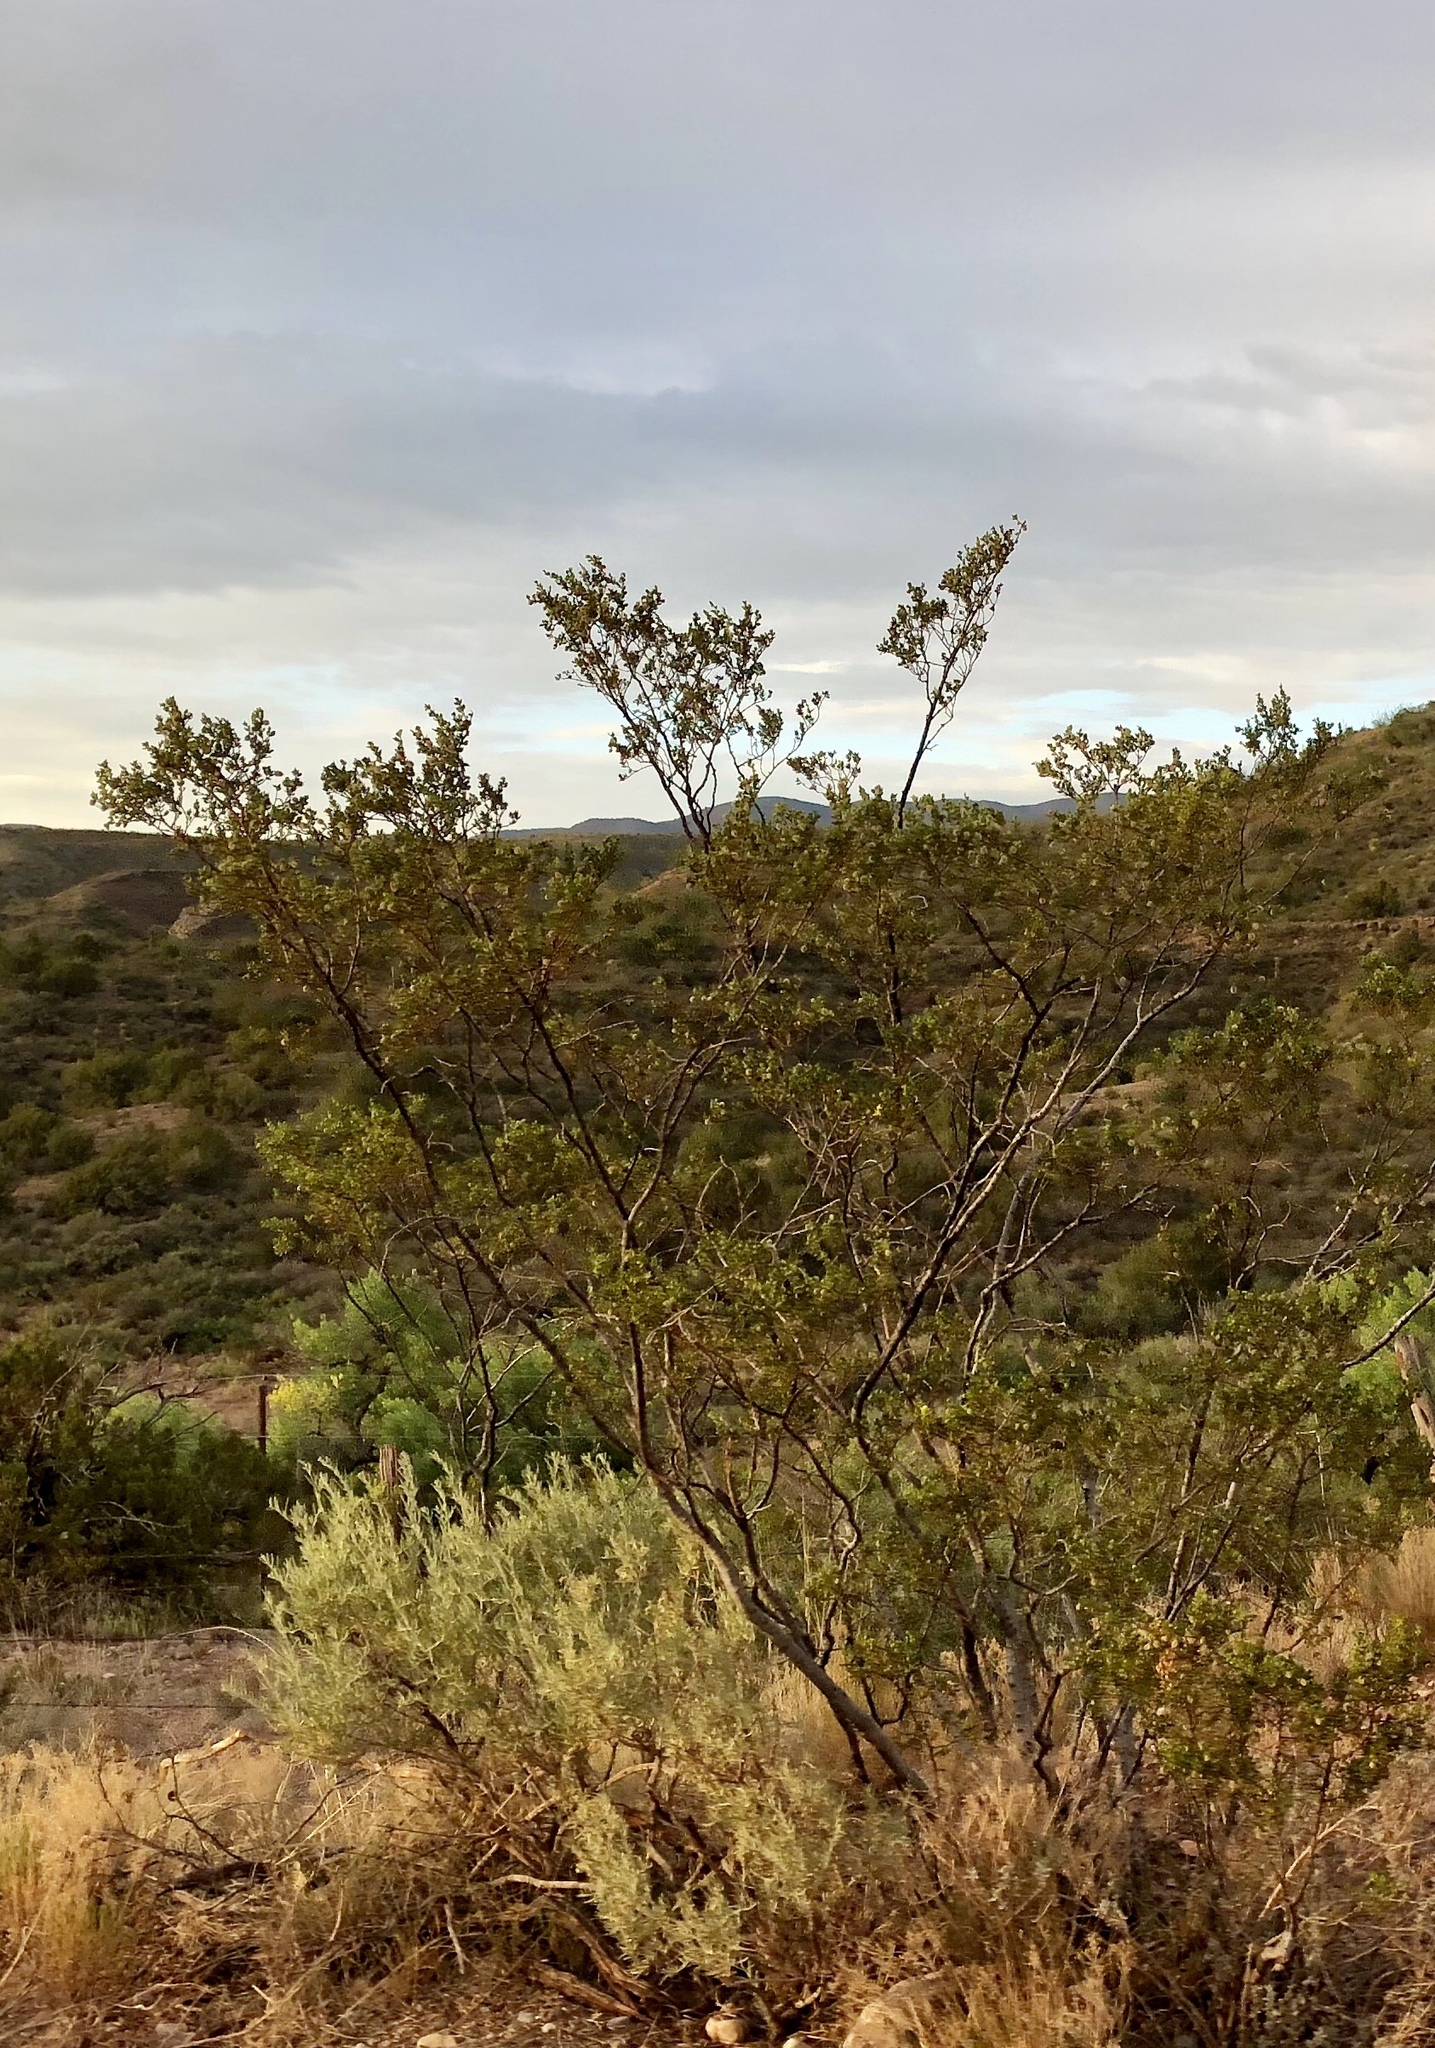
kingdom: Plantae
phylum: Tracheophyta
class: Magnoliopsida
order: Zygophyllales
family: Zygophyllaceae
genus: Larrea
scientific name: Larrea tridentata
